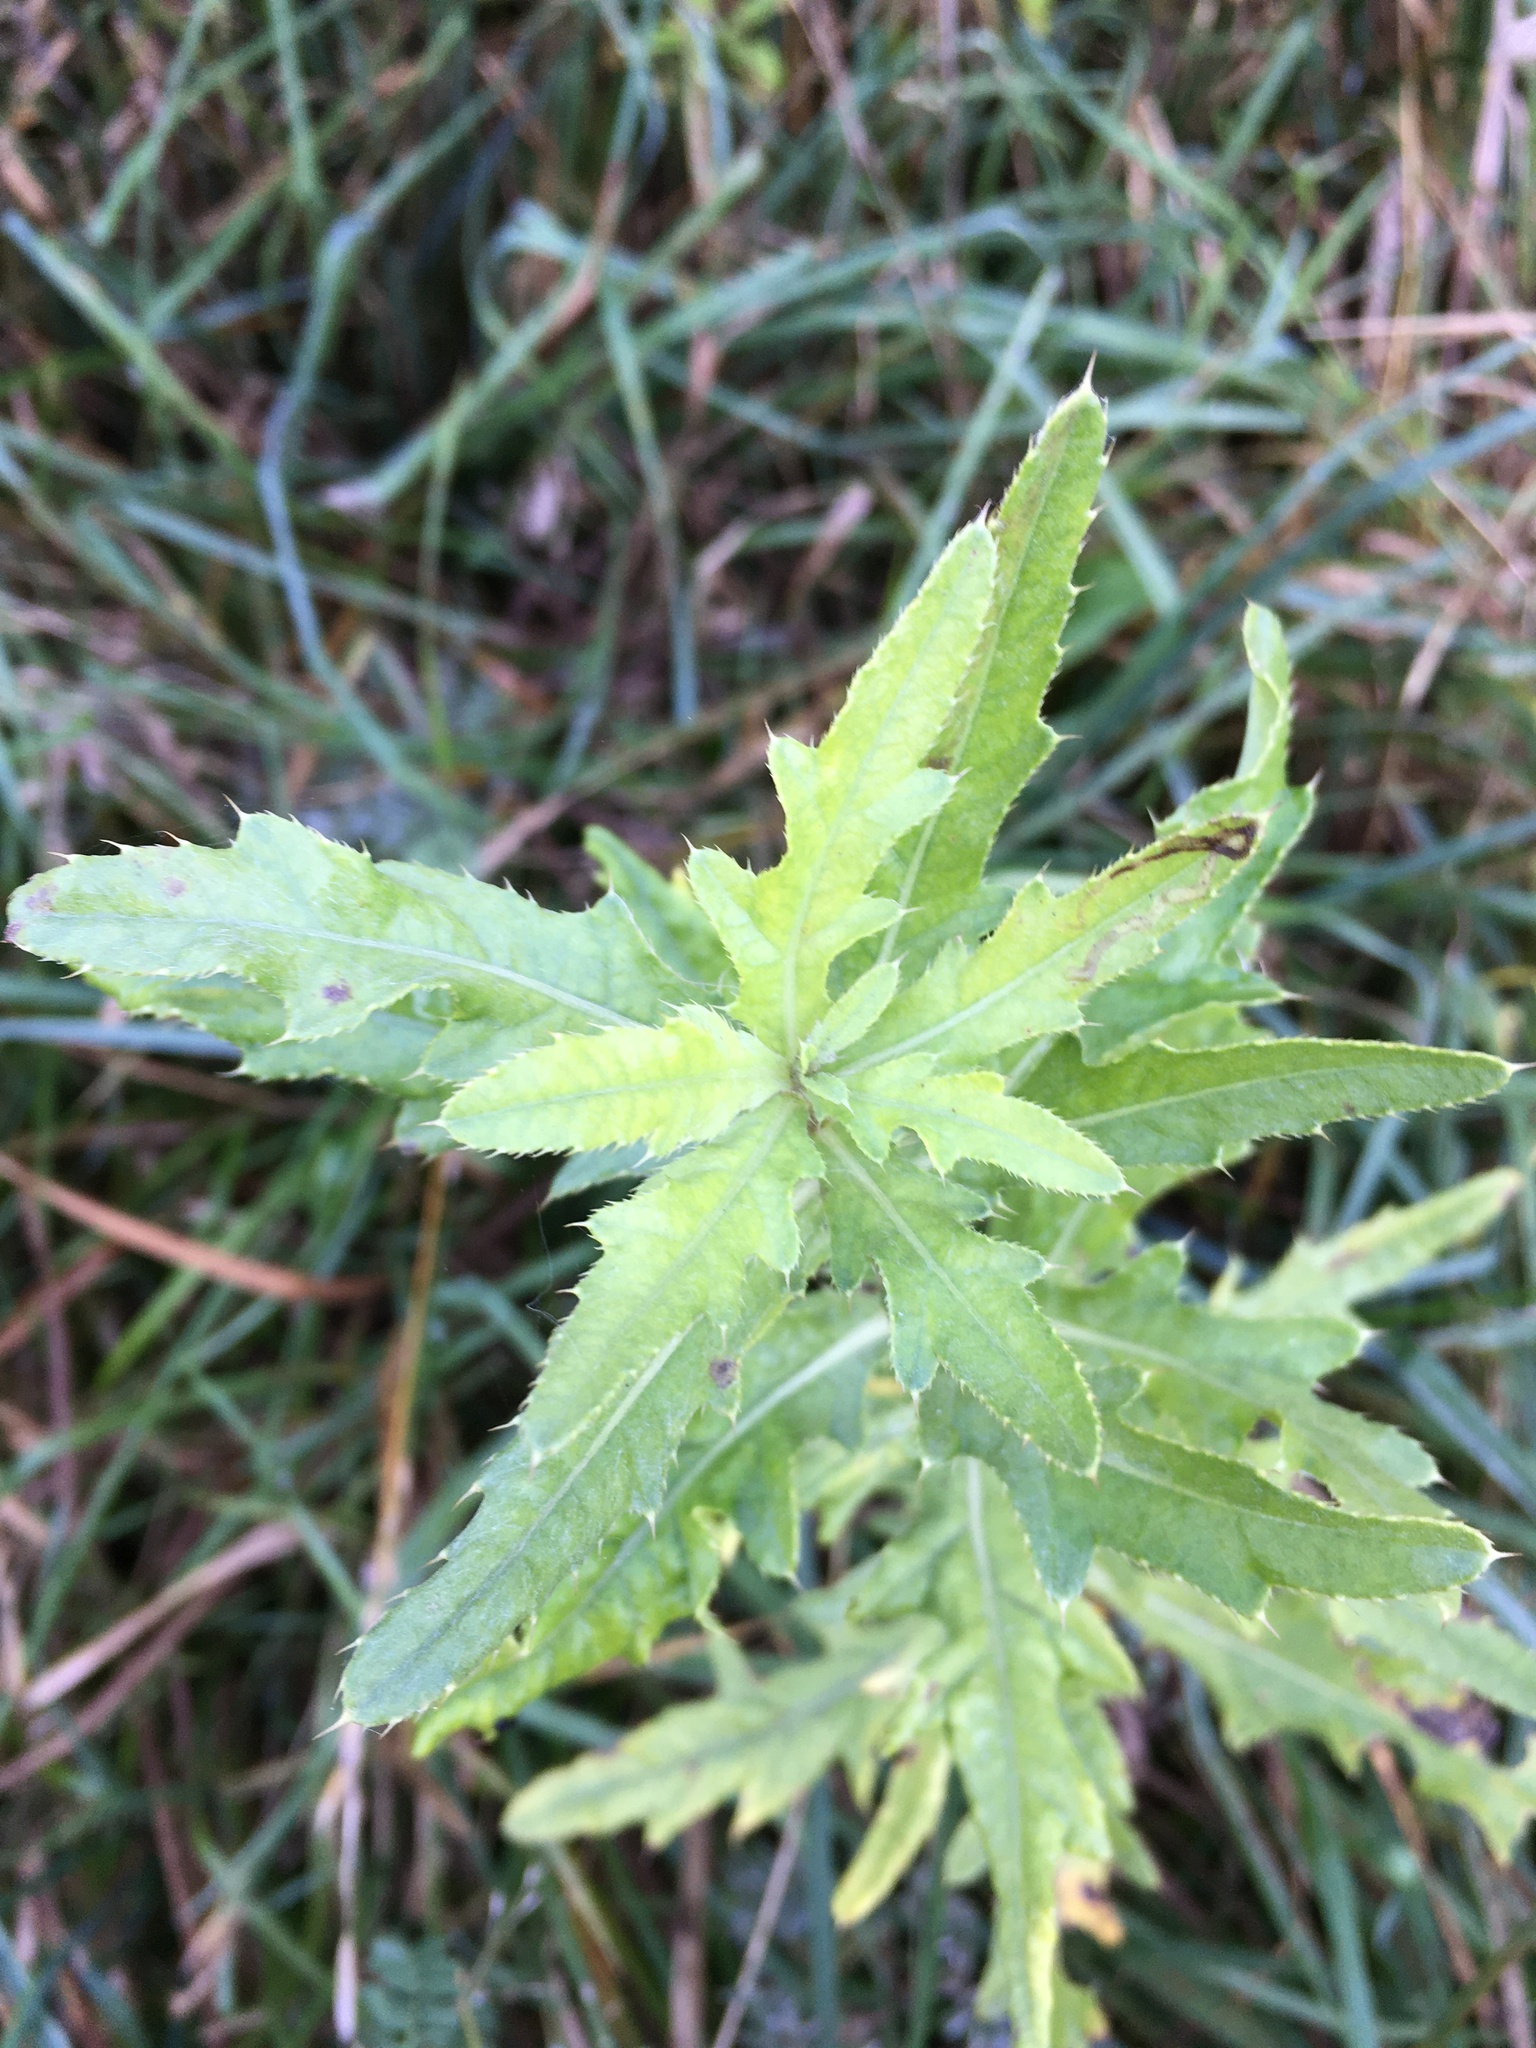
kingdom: Plantae
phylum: Tracheophyta
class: Magnoliopsida
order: Asterales
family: Asteraceae
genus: Cirsium
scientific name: Cirsium arvense
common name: Creeping thistle
